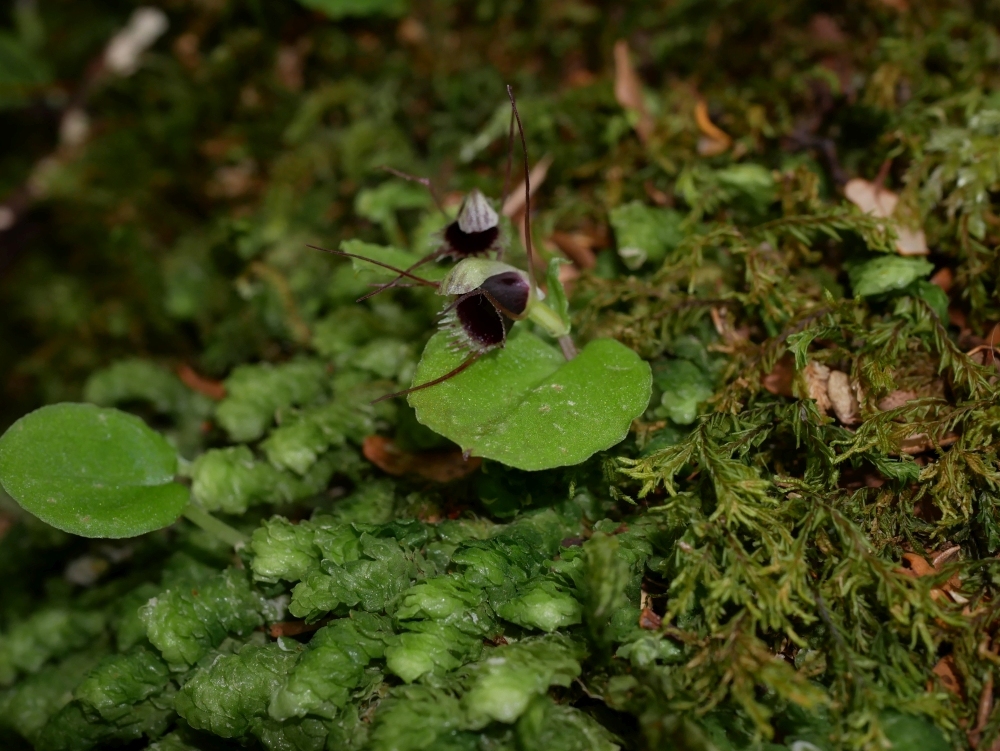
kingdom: Plantae
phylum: Tracheophyta
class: Liliopsida
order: Asparagales
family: Orchidaceae
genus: Corybas
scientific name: Corybas oblongus
